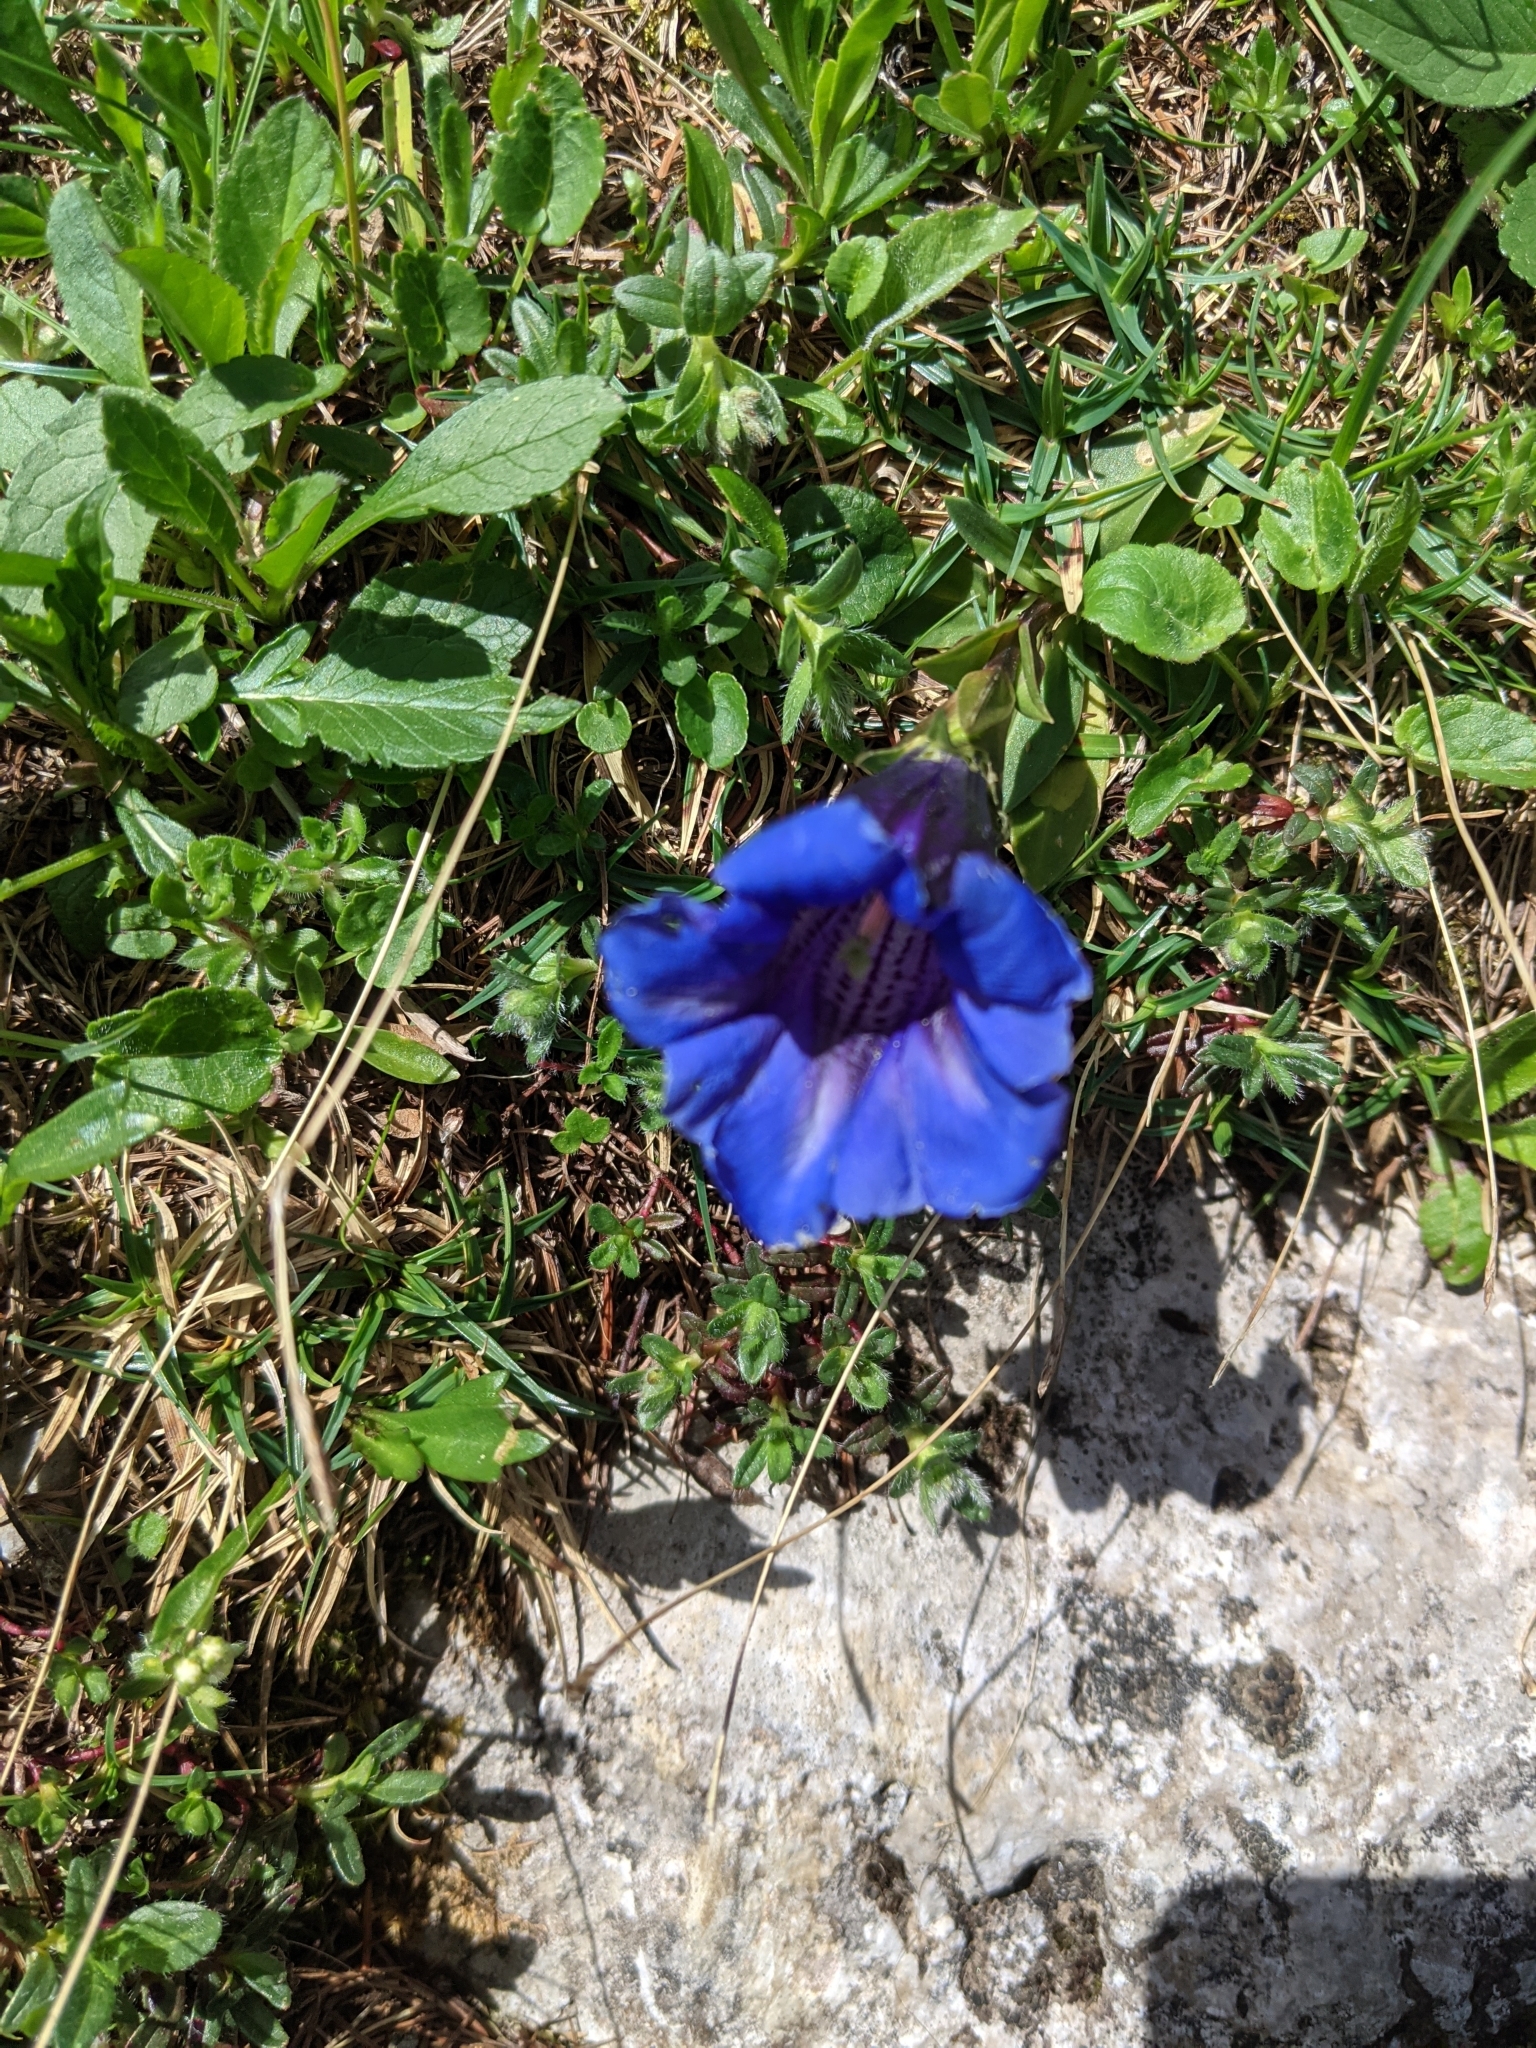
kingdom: Plantae
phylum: Tracheophyta
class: Magnoliopsida
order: Gentianales
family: Gentianaceae
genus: Gentiana
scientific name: Gentiana clusii
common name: Trumpet gentian
